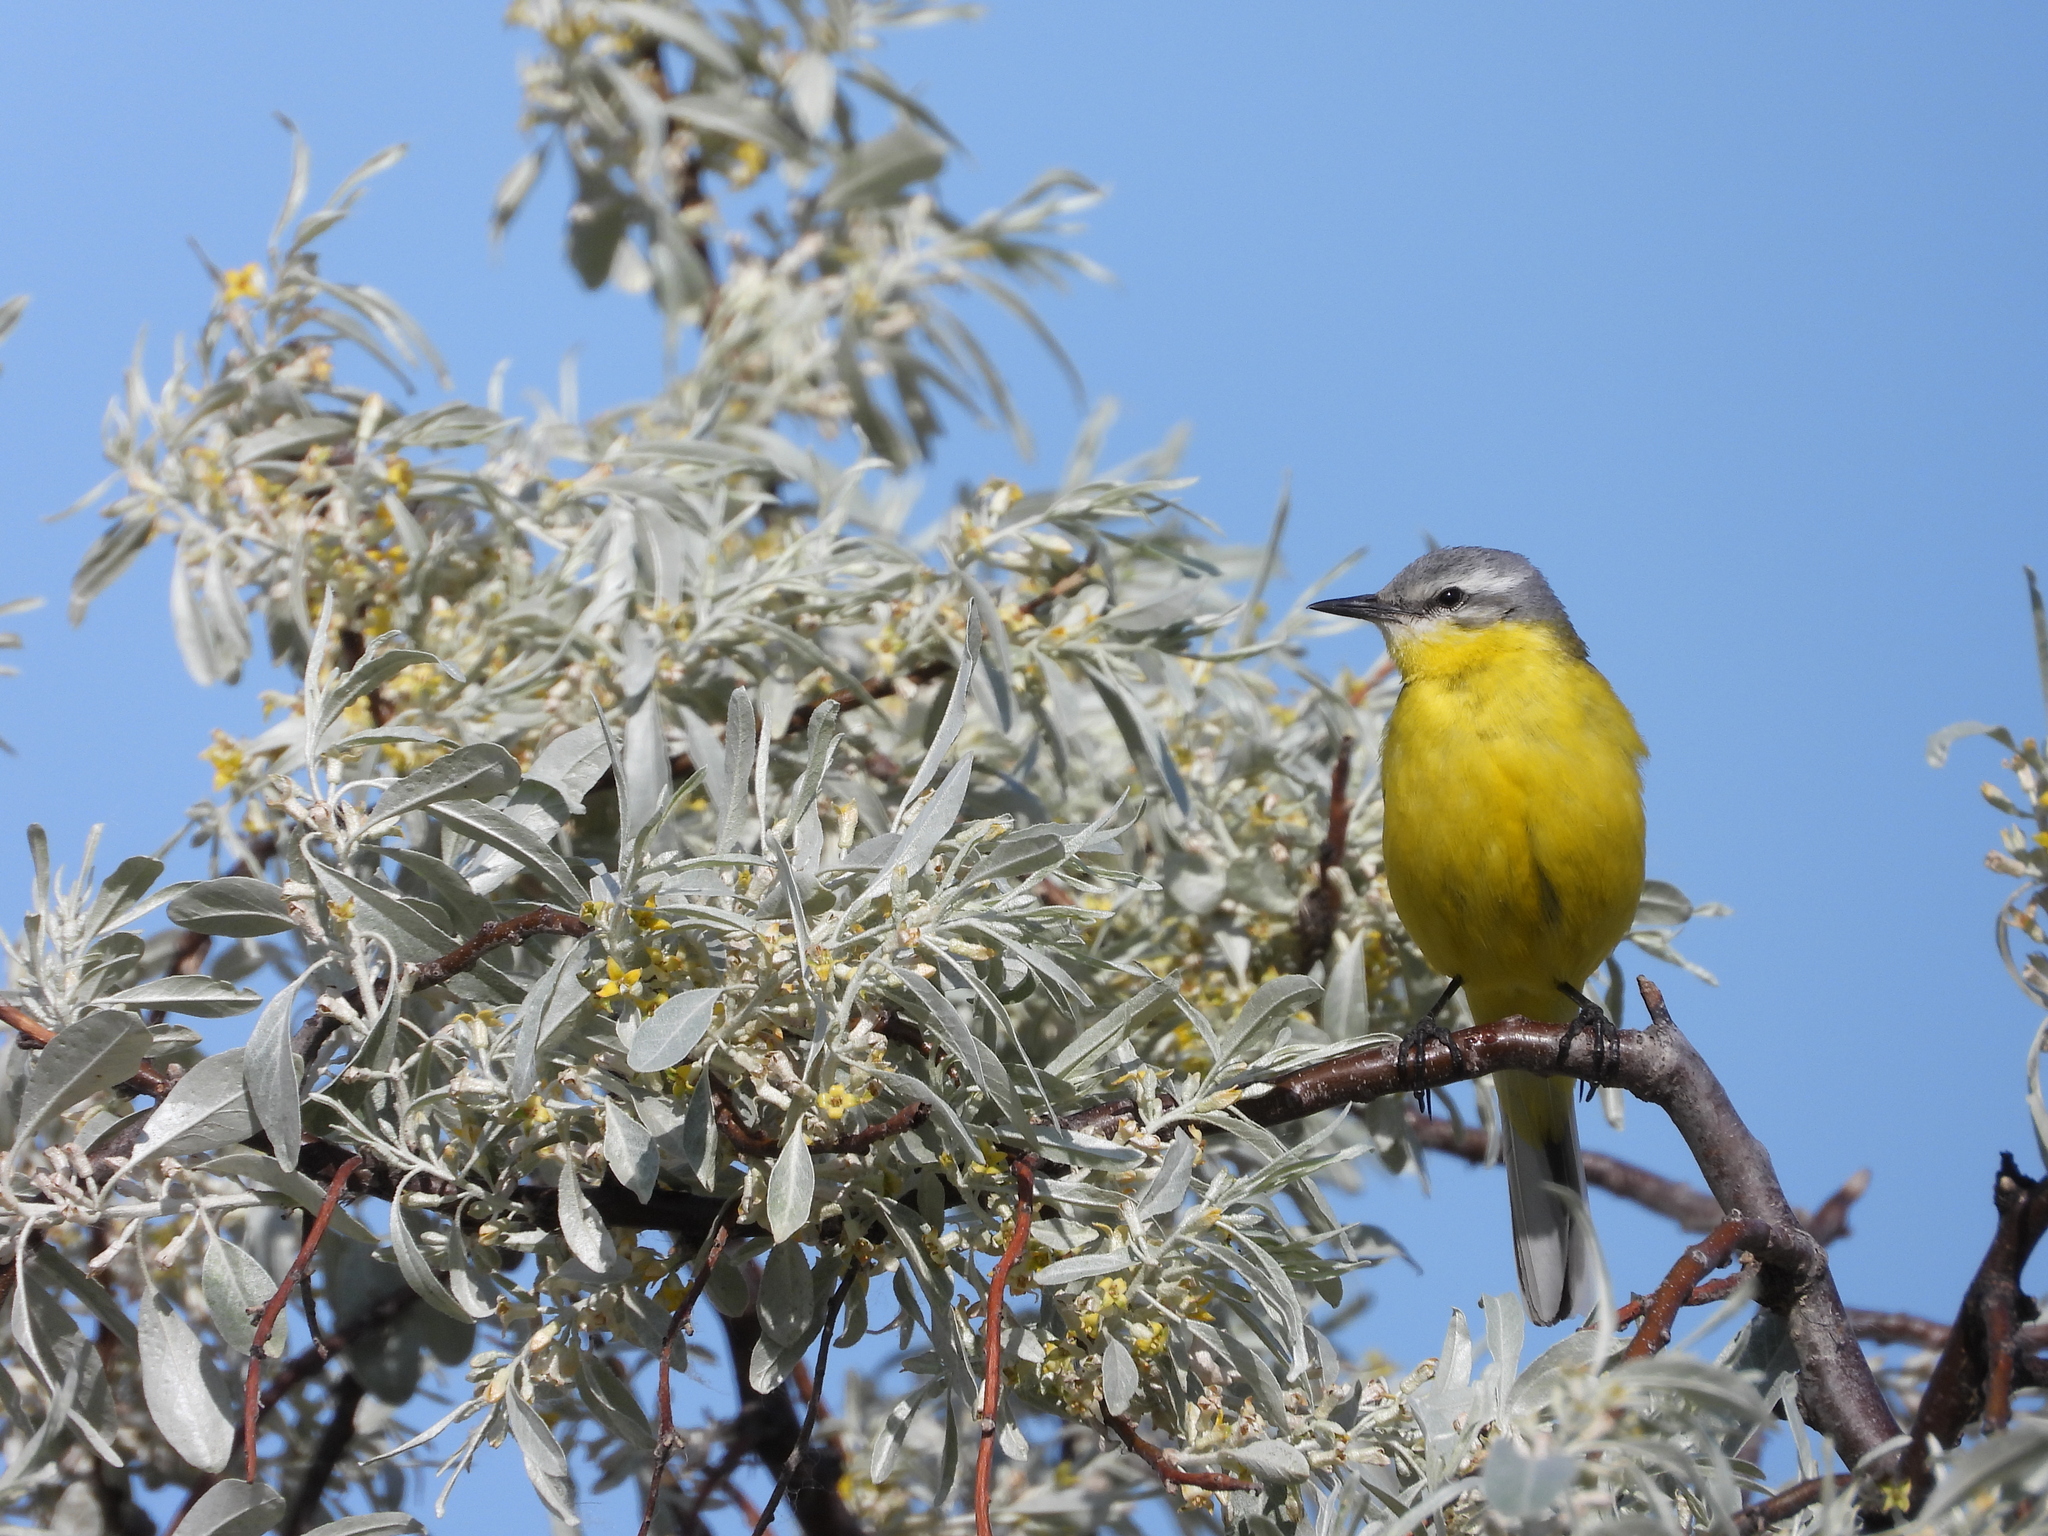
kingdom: Animalia
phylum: Chordata
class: Aves
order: Passeriformes
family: Motacillidae
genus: Motacilla
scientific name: Motacilla flava
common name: Western yellow wagtail
